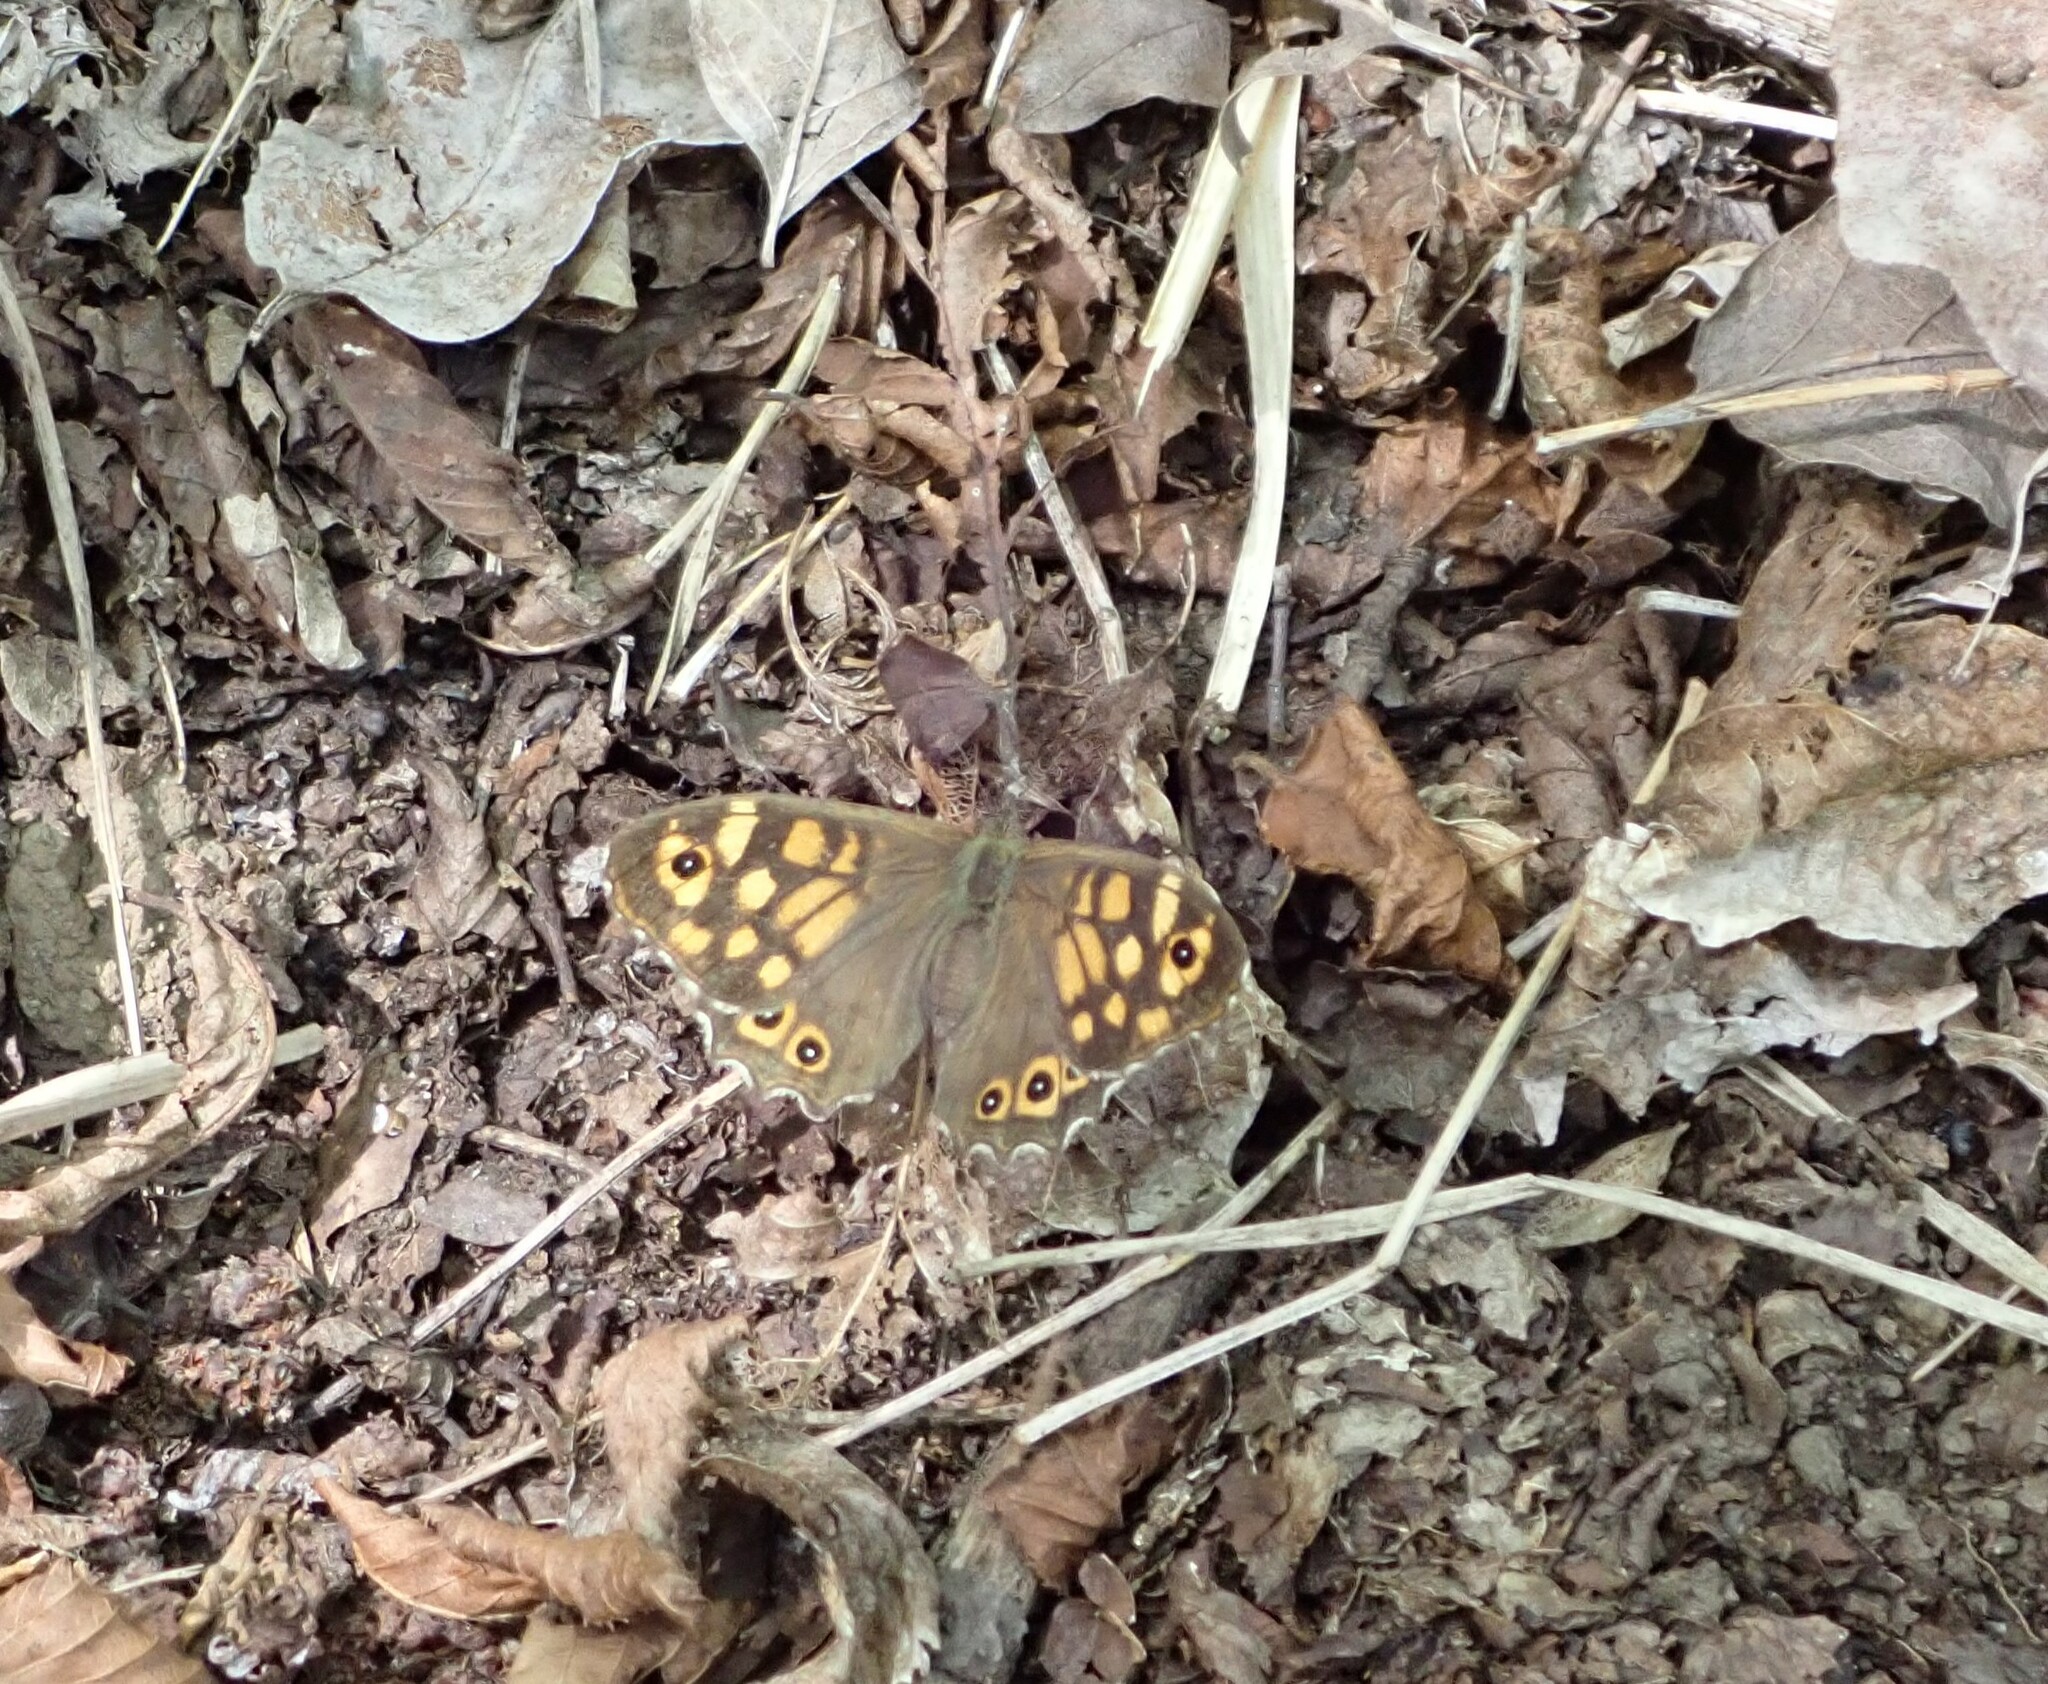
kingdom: Animalia
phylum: Arthropoda
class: Insecta
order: Lepidoptera
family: Nymphalidae
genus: Pararge
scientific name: Pararge aegeria
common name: Speckled wood
